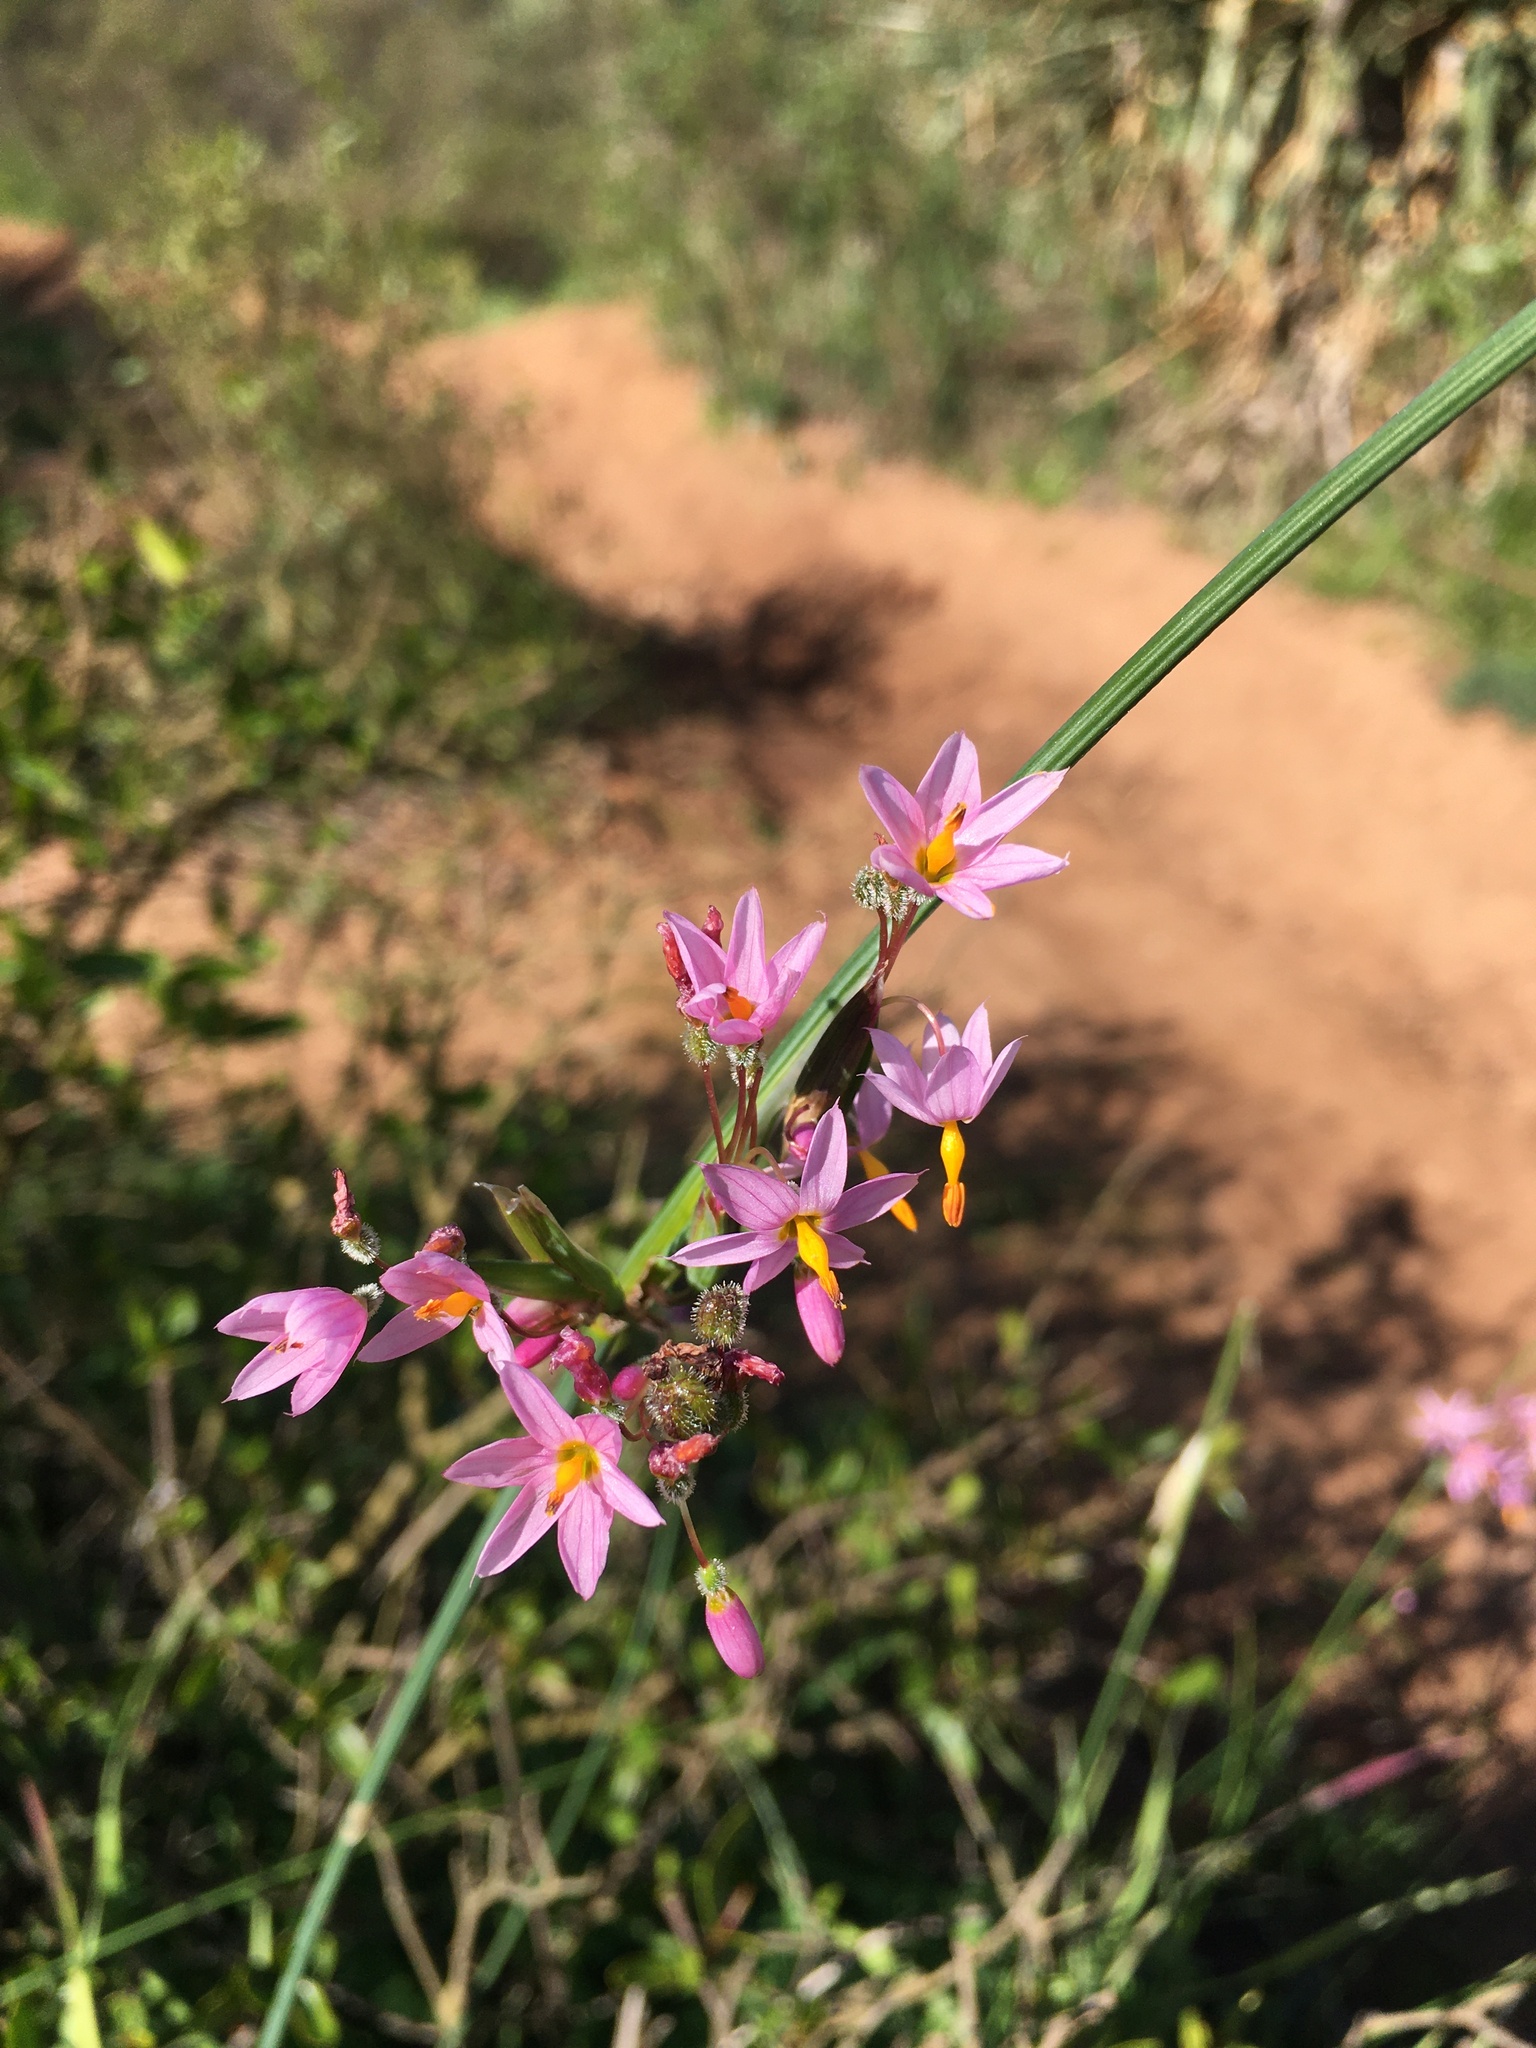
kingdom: Plantae
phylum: Tracheophyta
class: Liliopsida
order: Asparagales
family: Iridaceae
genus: Olsynium
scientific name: Olsynium scirpoideum
